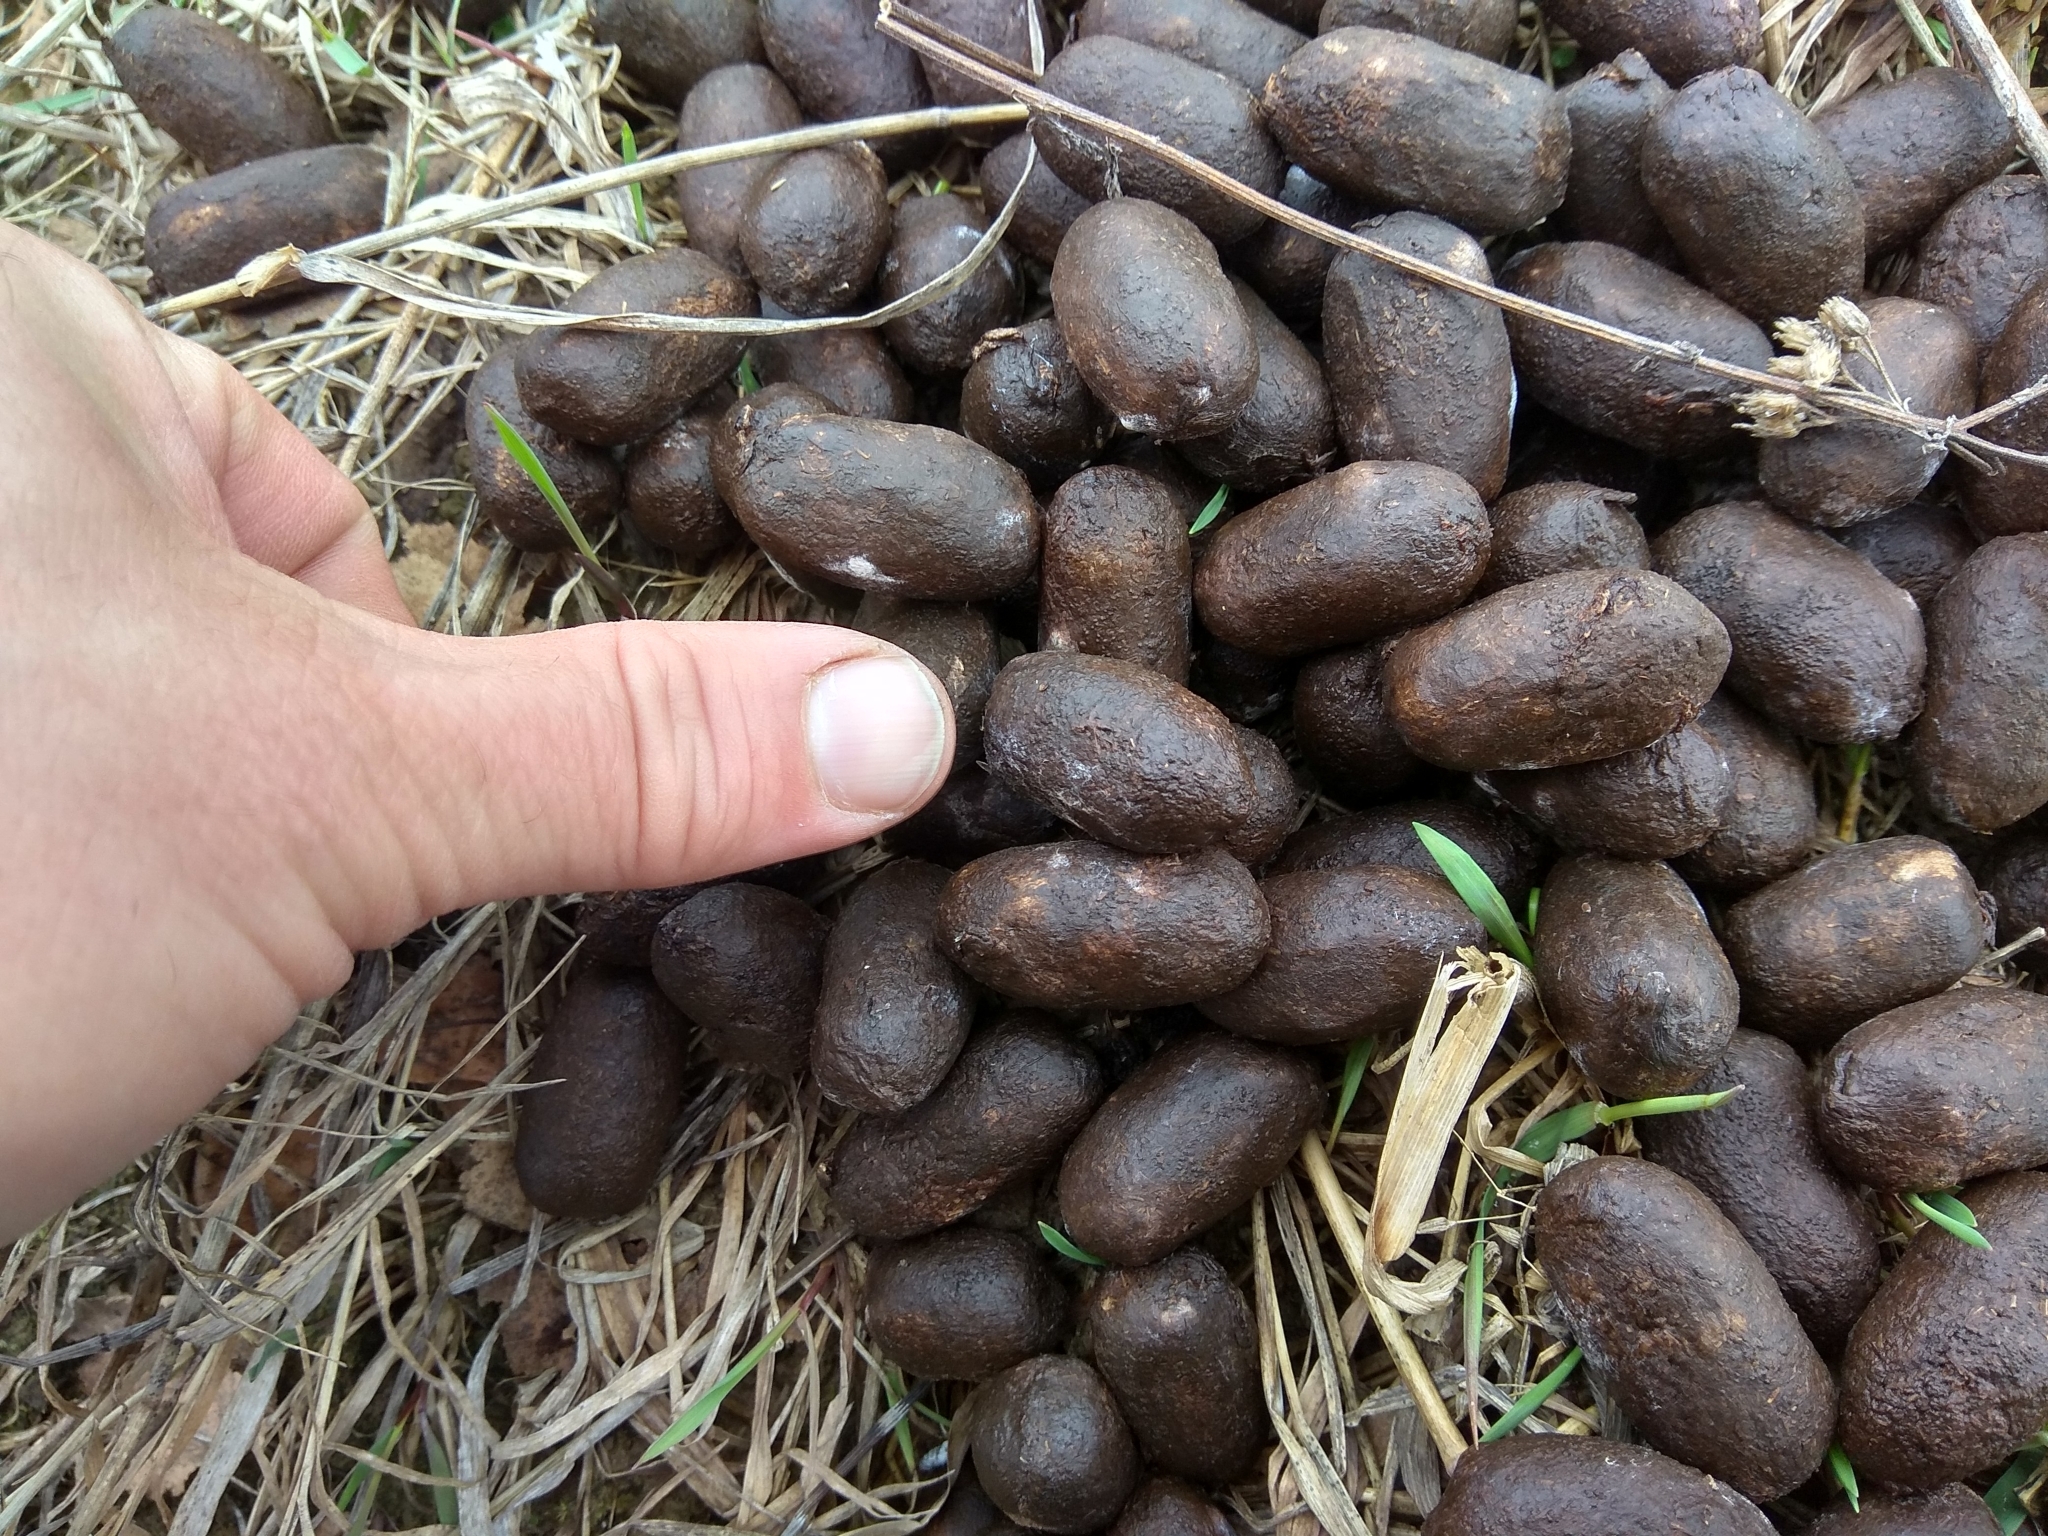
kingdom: Animalia
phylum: Chordata
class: Mammalia
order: Artiodactyla
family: Cervidae
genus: Alces
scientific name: Alces alces
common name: Moose
